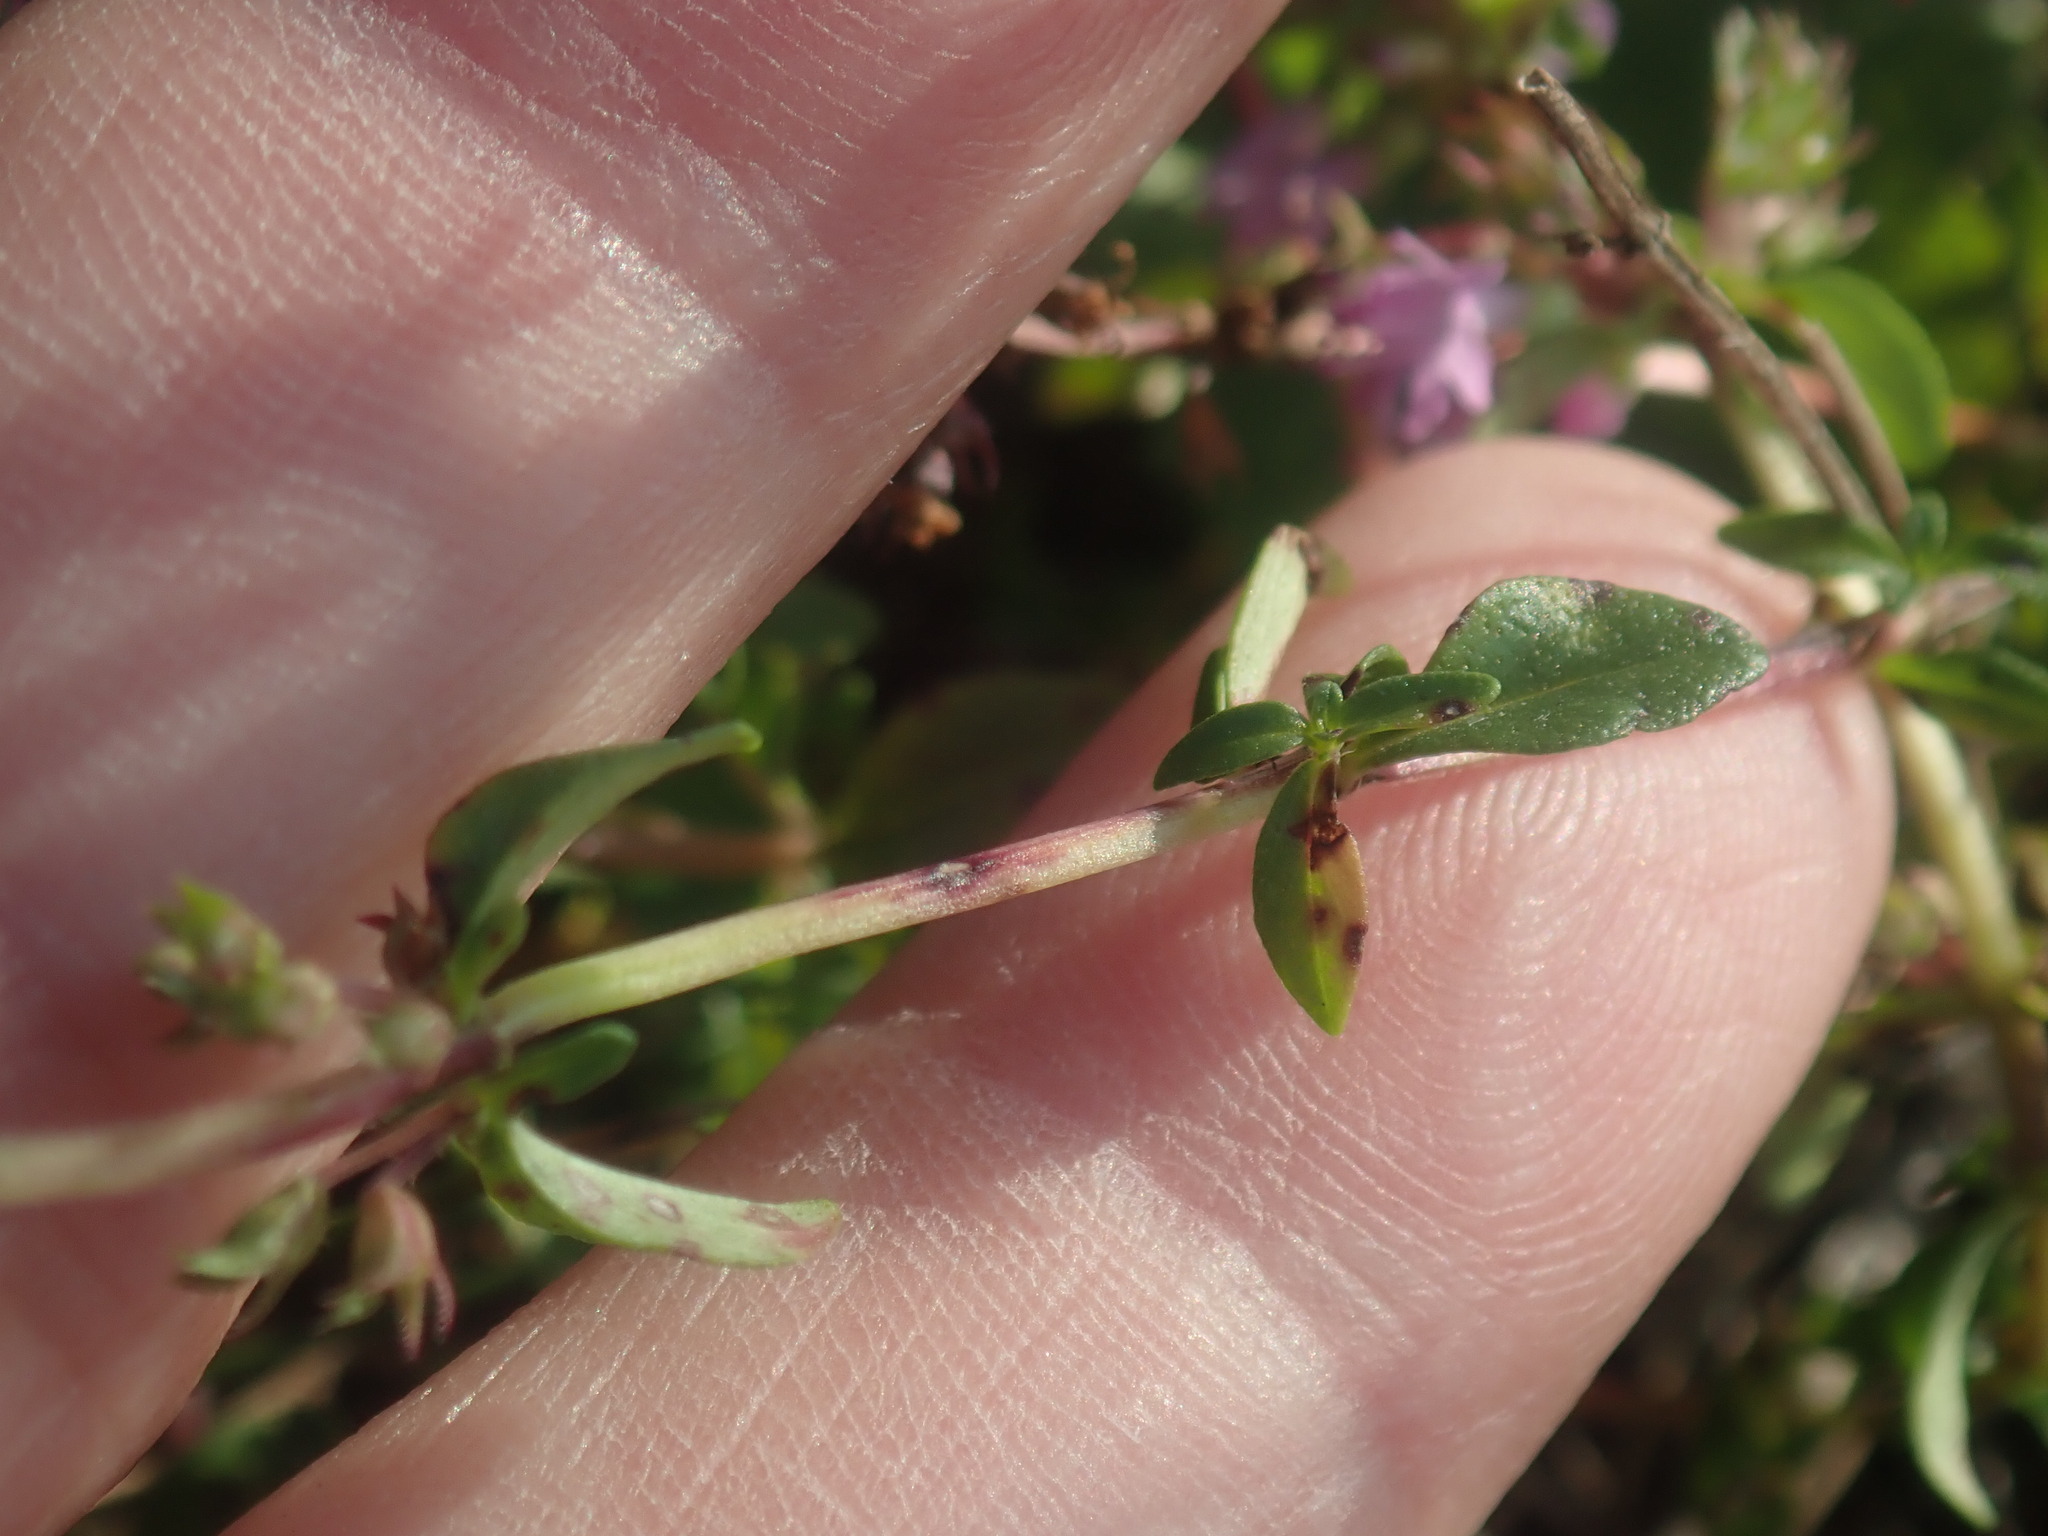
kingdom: Plantae
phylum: Tracheophyta
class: Magnoliopsida
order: Lamiales
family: Lamiaceae
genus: Thymus
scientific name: Thymus pulegioides
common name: Large thyme
